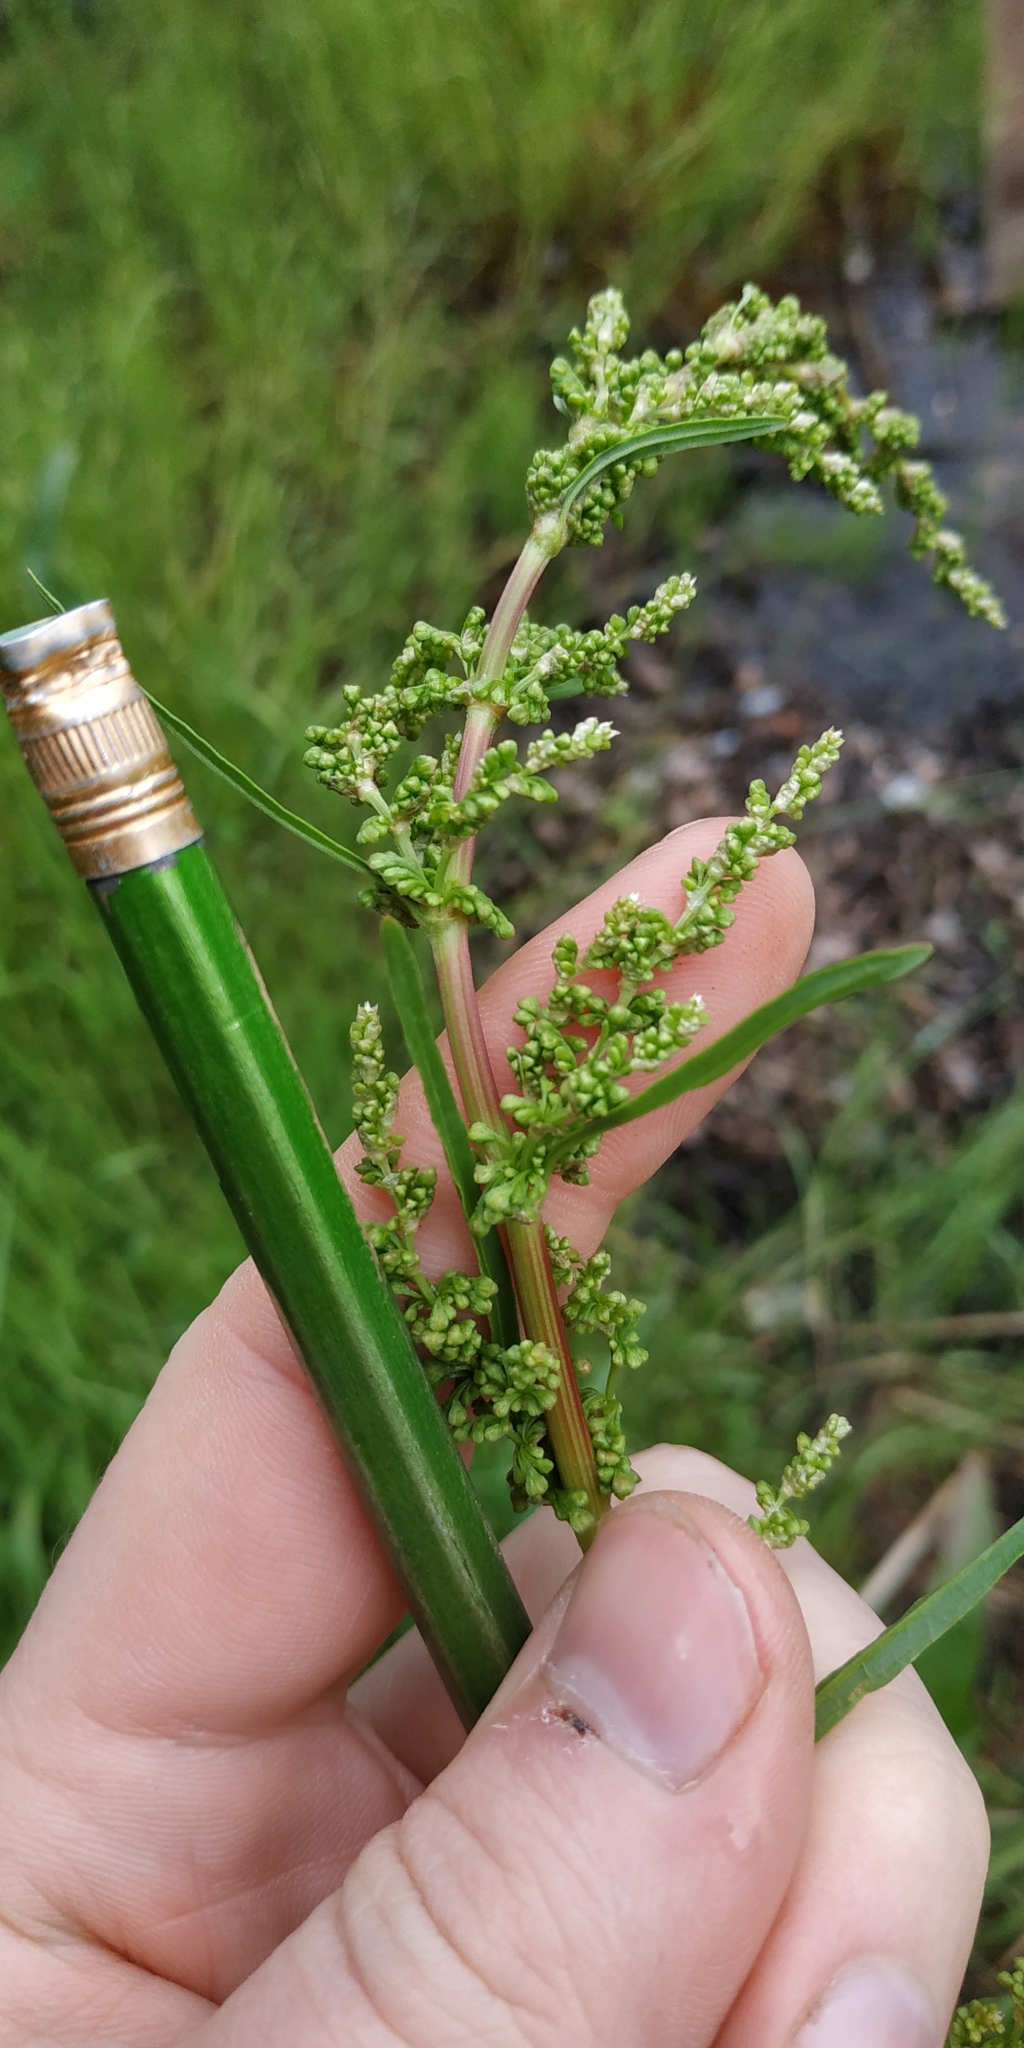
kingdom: Plantae
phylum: Tracheophyta
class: Magnoliopsida
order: Caryophyllales
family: Polygonaceae
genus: Rumex
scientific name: Rumex pseudonatronatus
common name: Field dock
